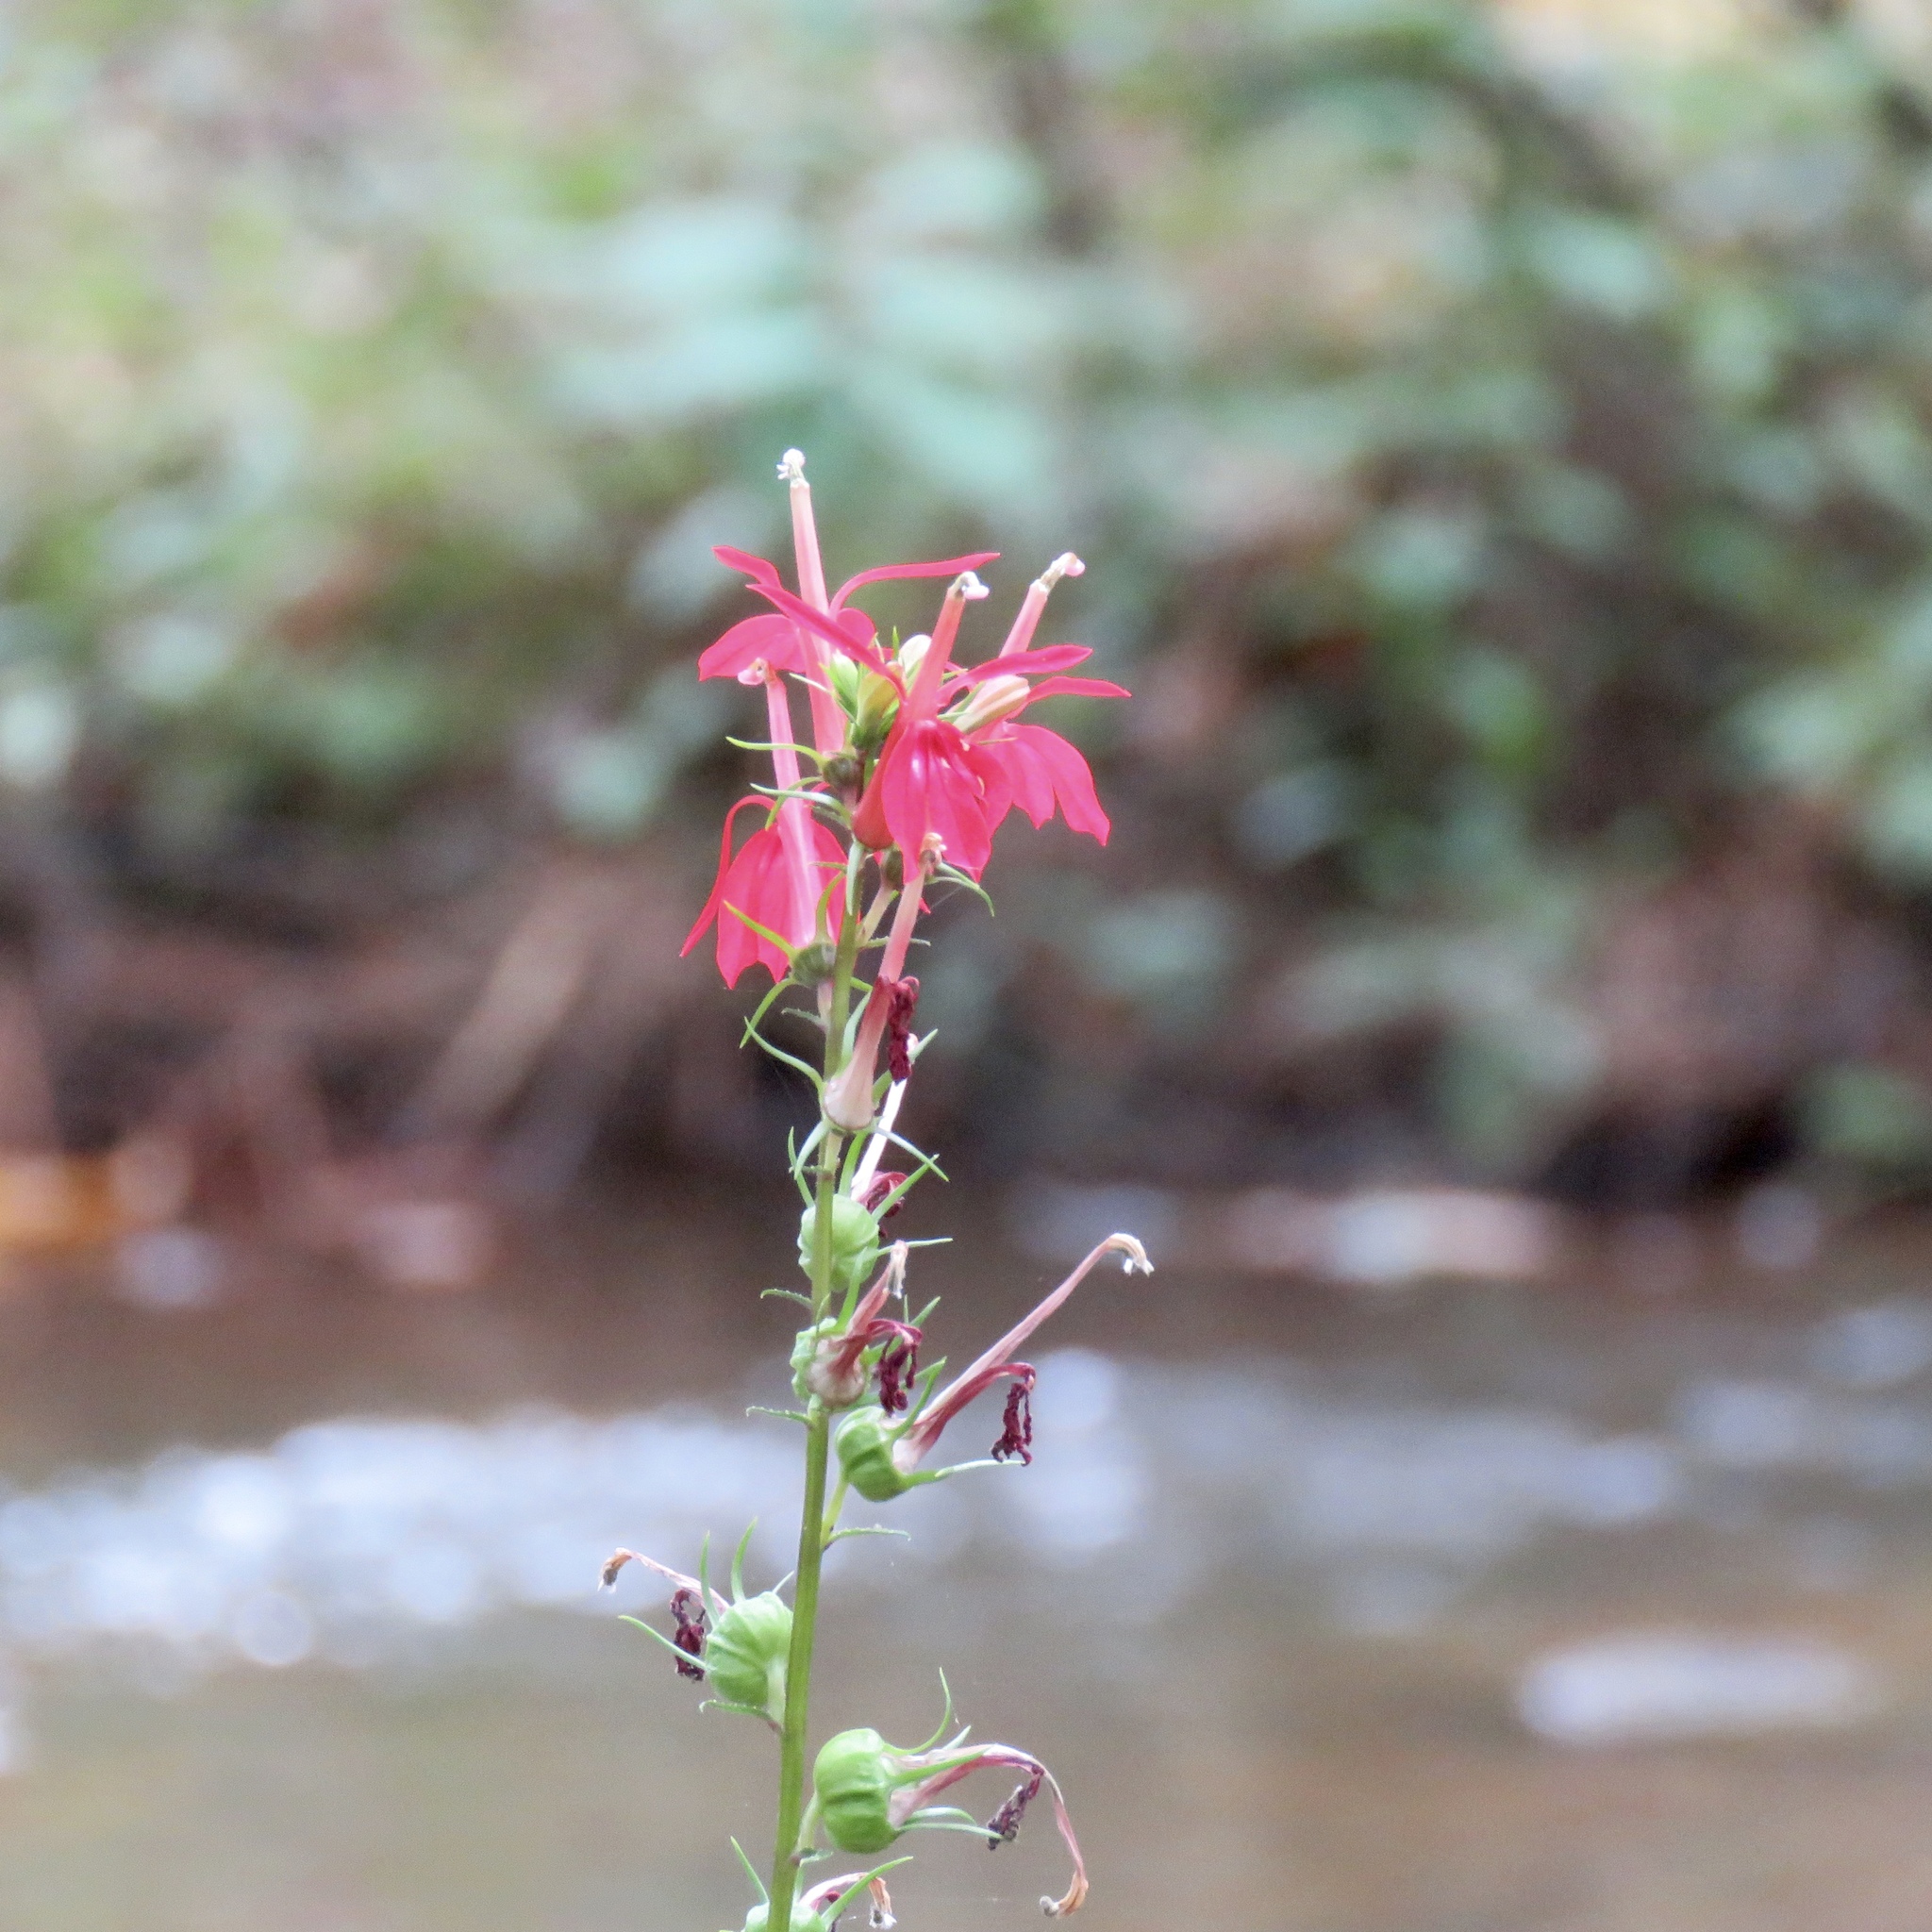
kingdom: Plantae
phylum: Tracheophyta
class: Magnoliopsida
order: Asterales
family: Campanulaceae
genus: Lobelia
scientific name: Lobelia cardinalis
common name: Cardinal flower
